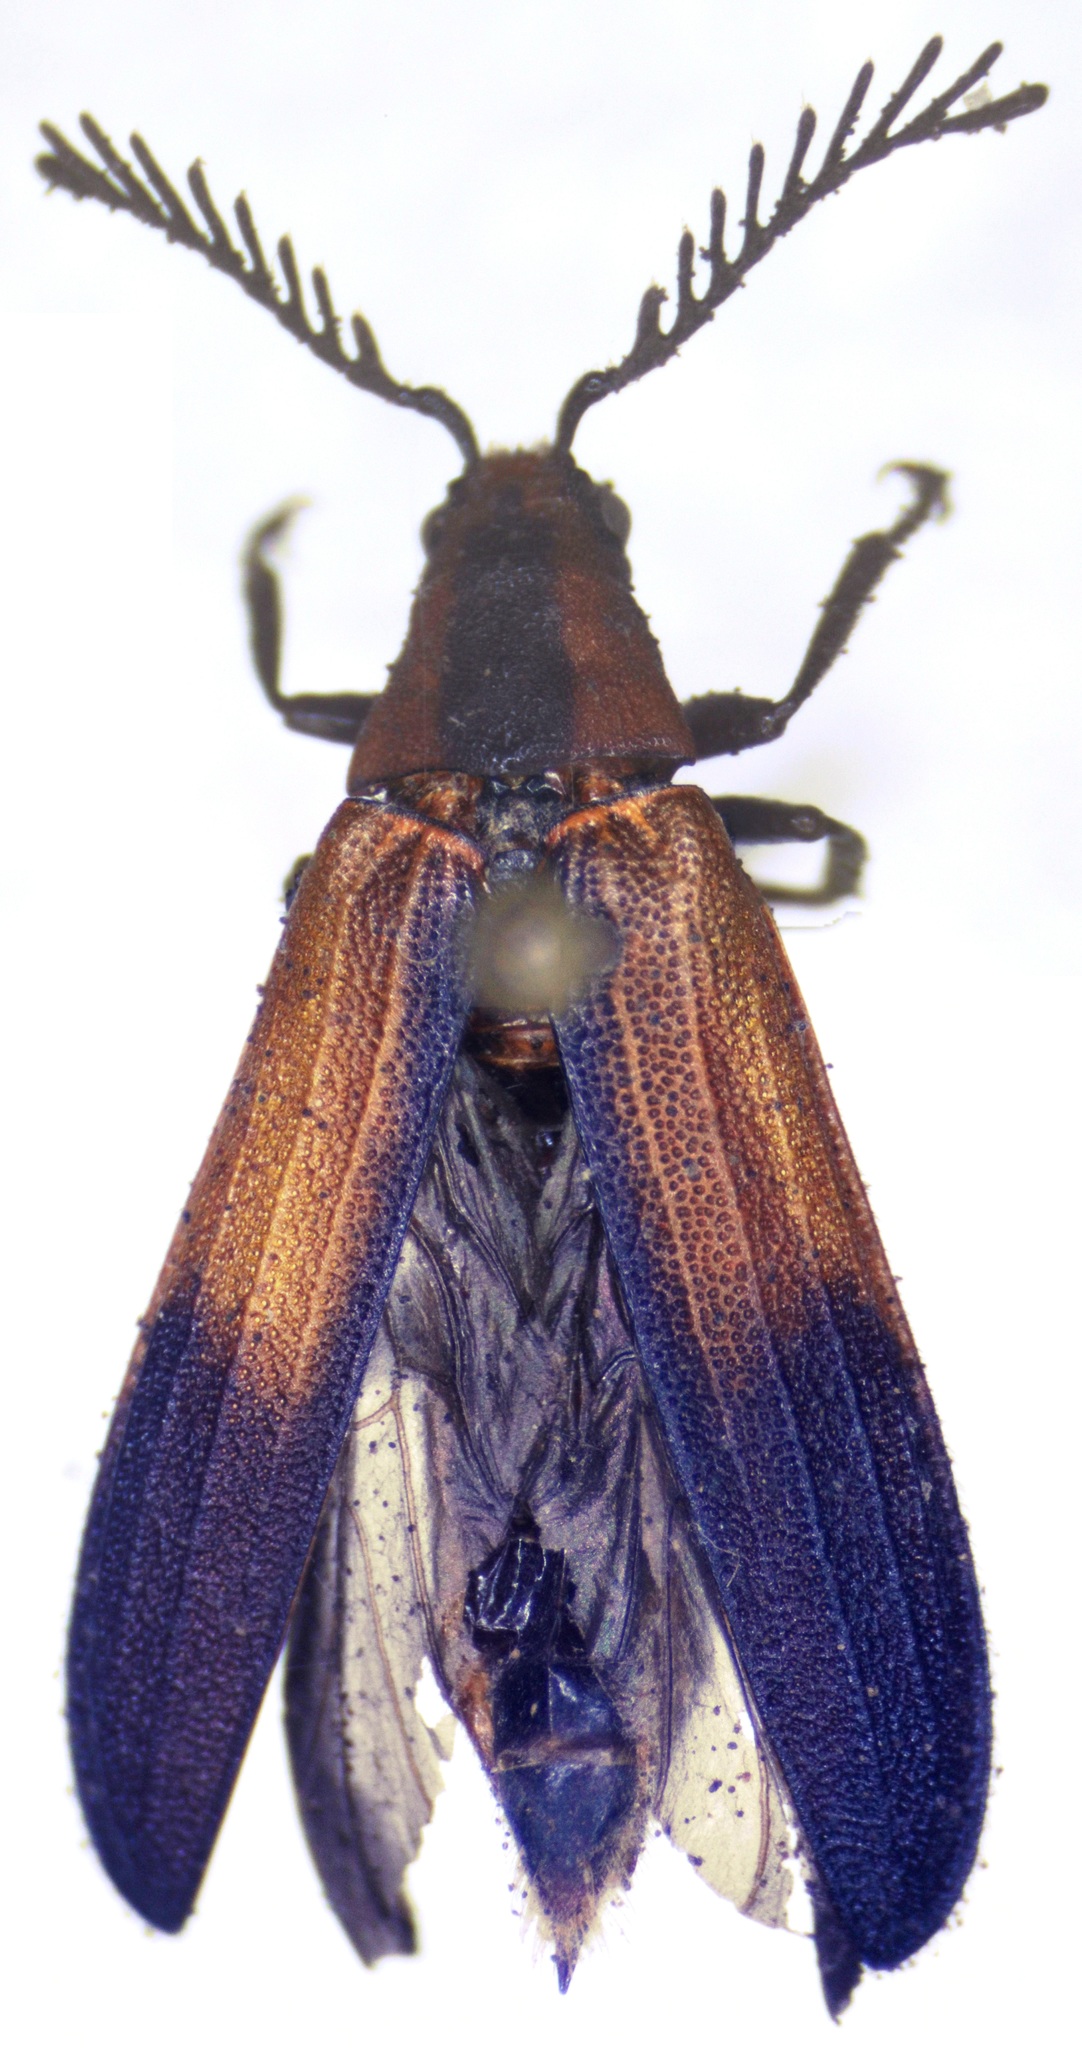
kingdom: Animalia
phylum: Arthropoda
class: Insecta
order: Coleoptera
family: Callirhipidae
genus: Celadonia
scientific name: Celadonia
